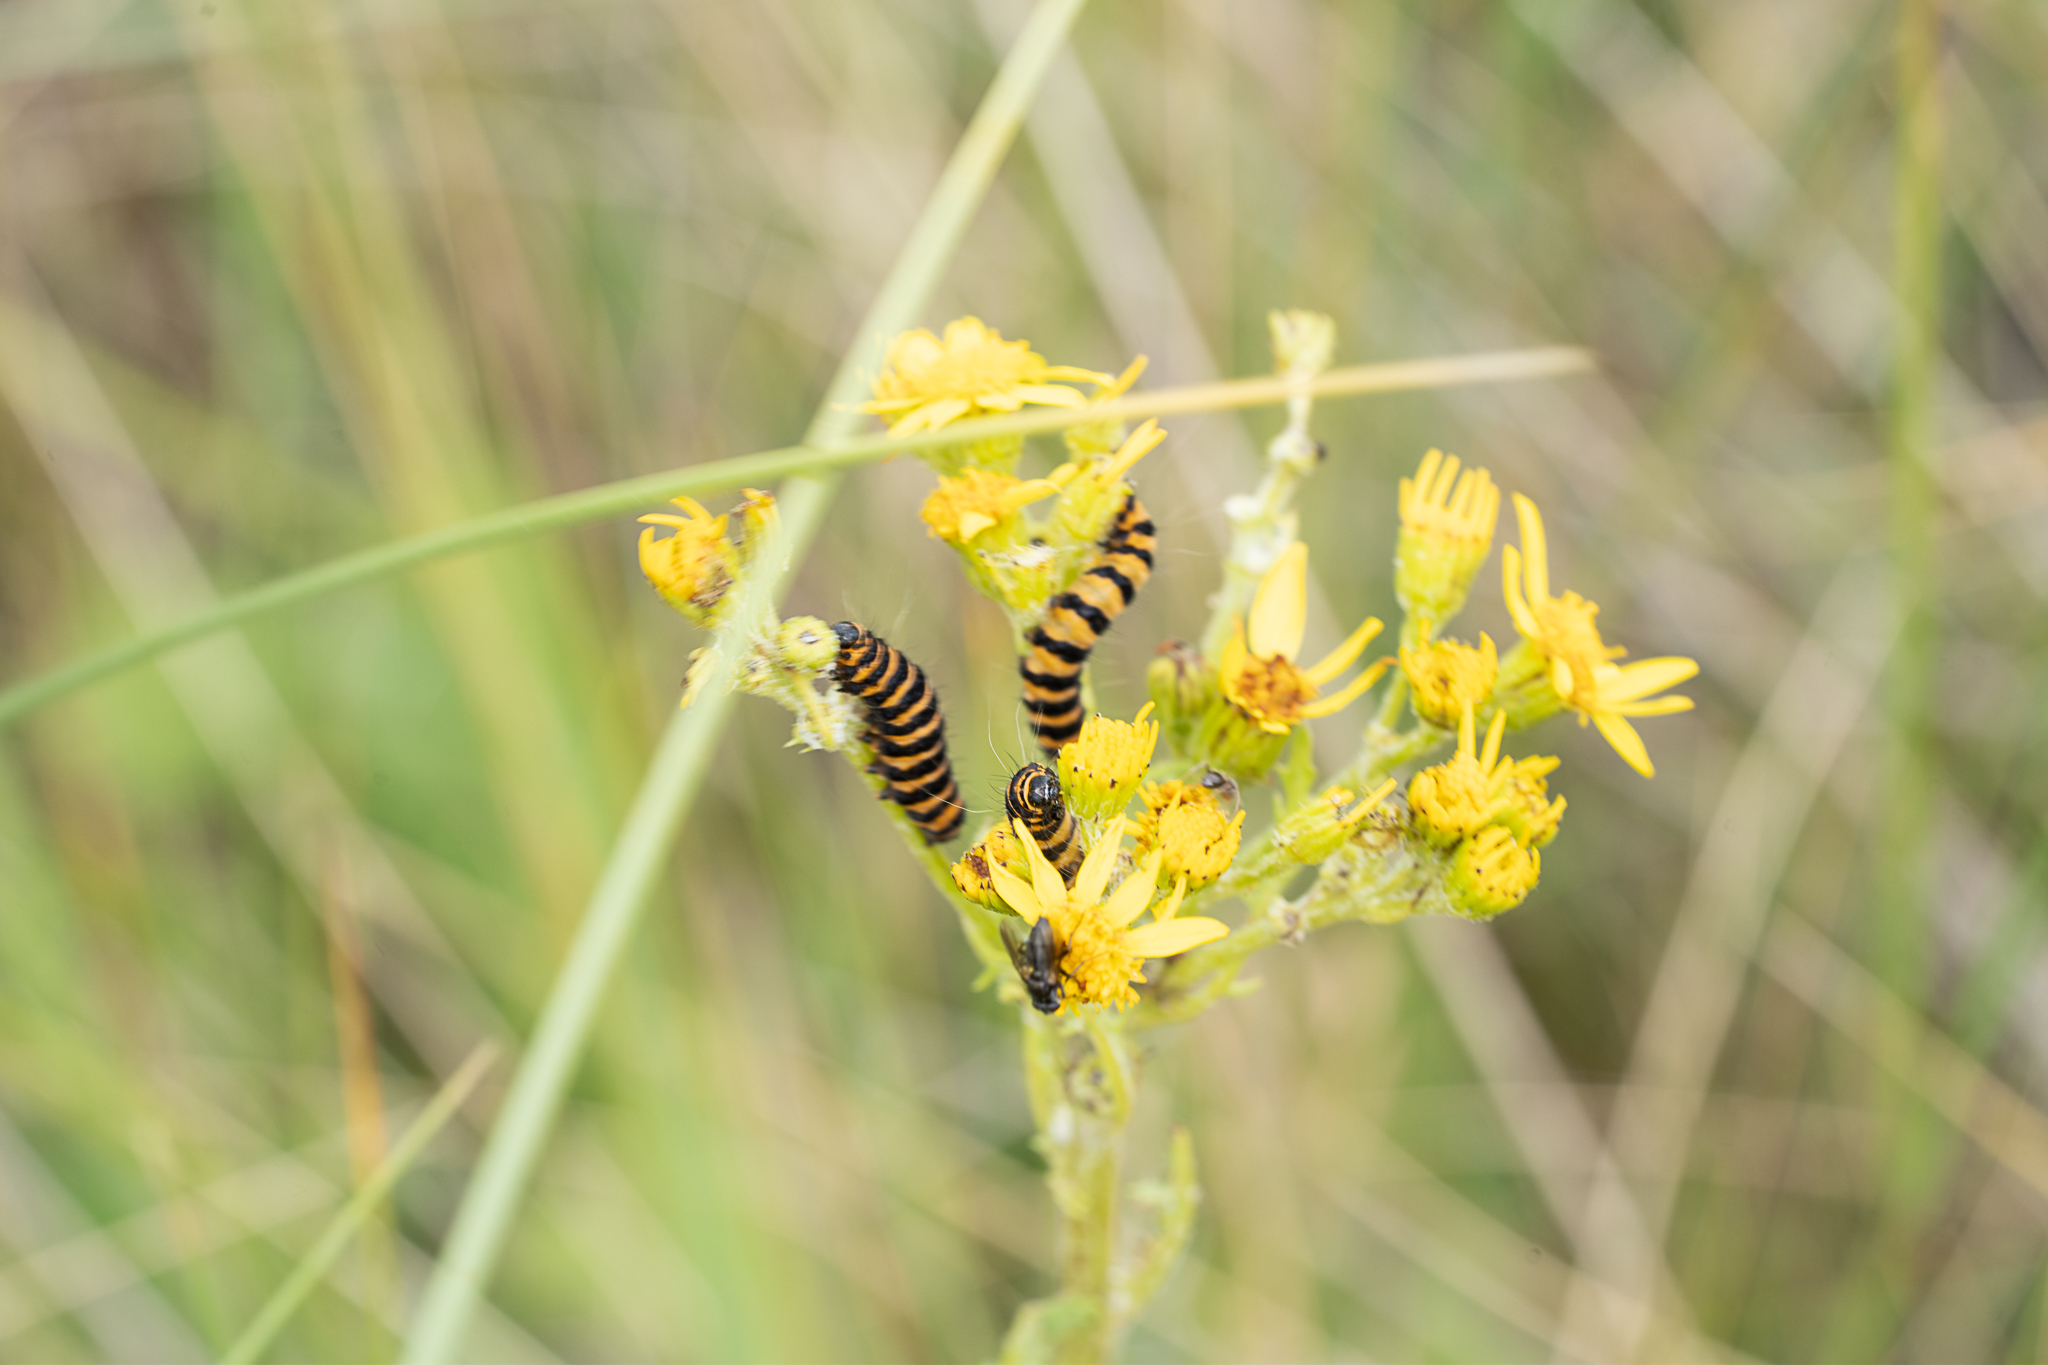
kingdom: Animalia
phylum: Arthropoda
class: Insecta
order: Lepidoptera
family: Erebidae
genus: Tyria
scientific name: Tyria jacobaeae
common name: Cinnabar
